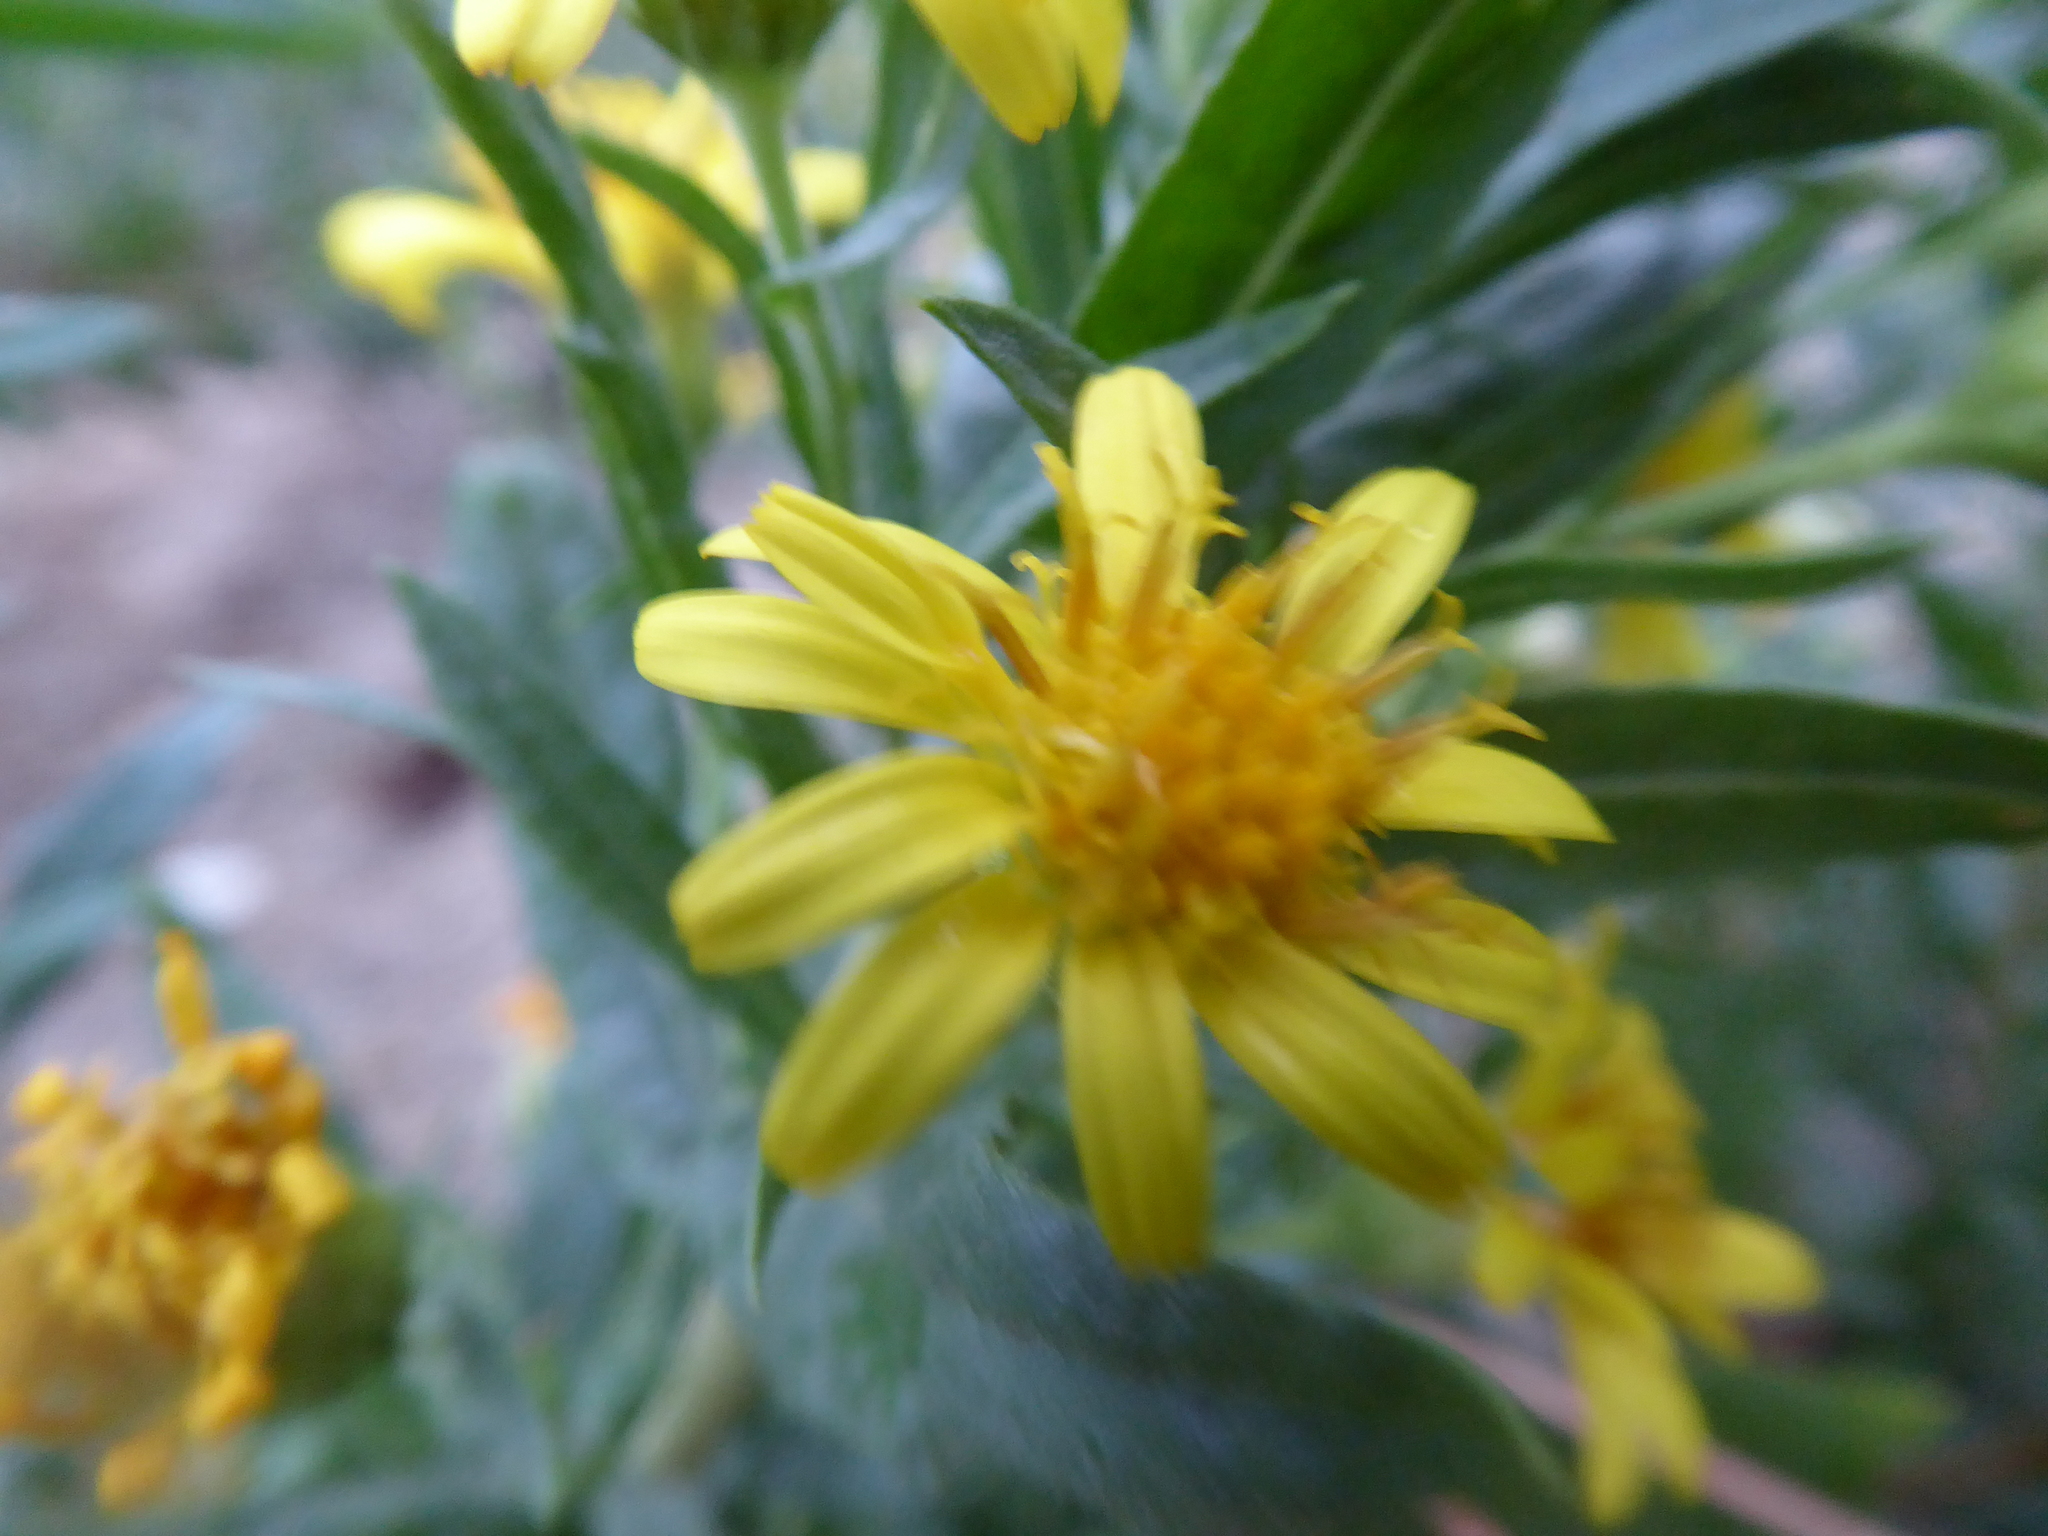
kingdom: Plantae
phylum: Tracheophyta
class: Magnoliopsida
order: Asterales
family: Asteraceae
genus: Dittrichia
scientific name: Dittrichia viscosa
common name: Woody fleabane
